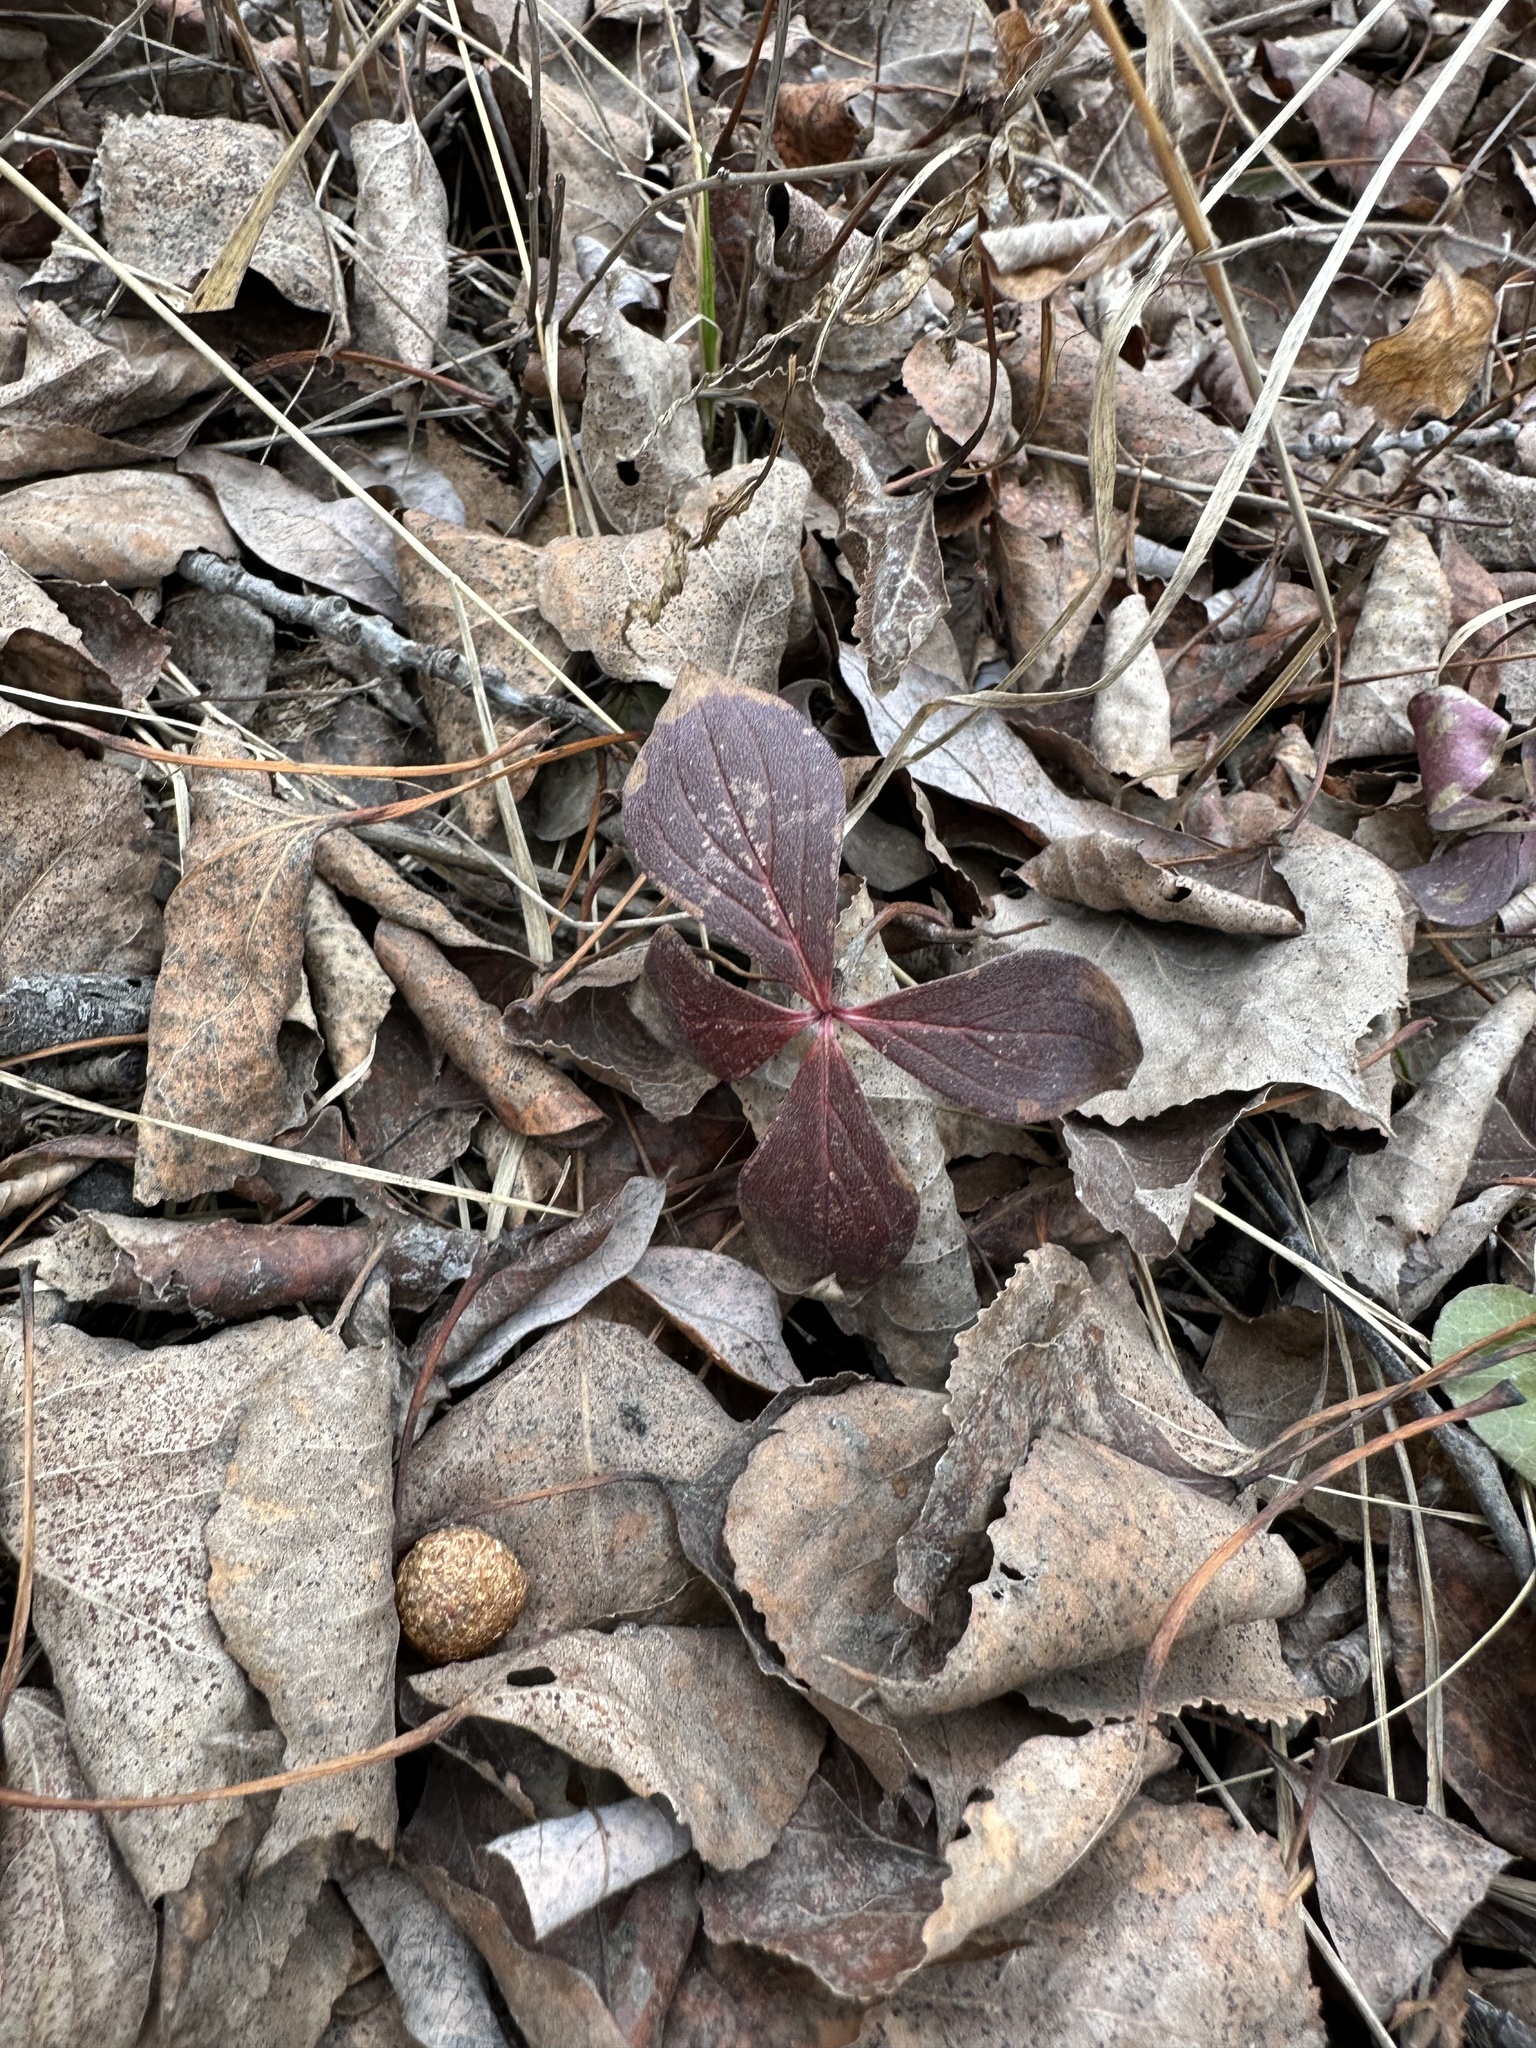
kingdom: Plantae
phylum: Tracheophyta
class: Magnoliopsida
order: Cornales
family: Cornaceae
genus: Cornus
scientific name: Cornus canadensis
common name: Creeping dogwood
